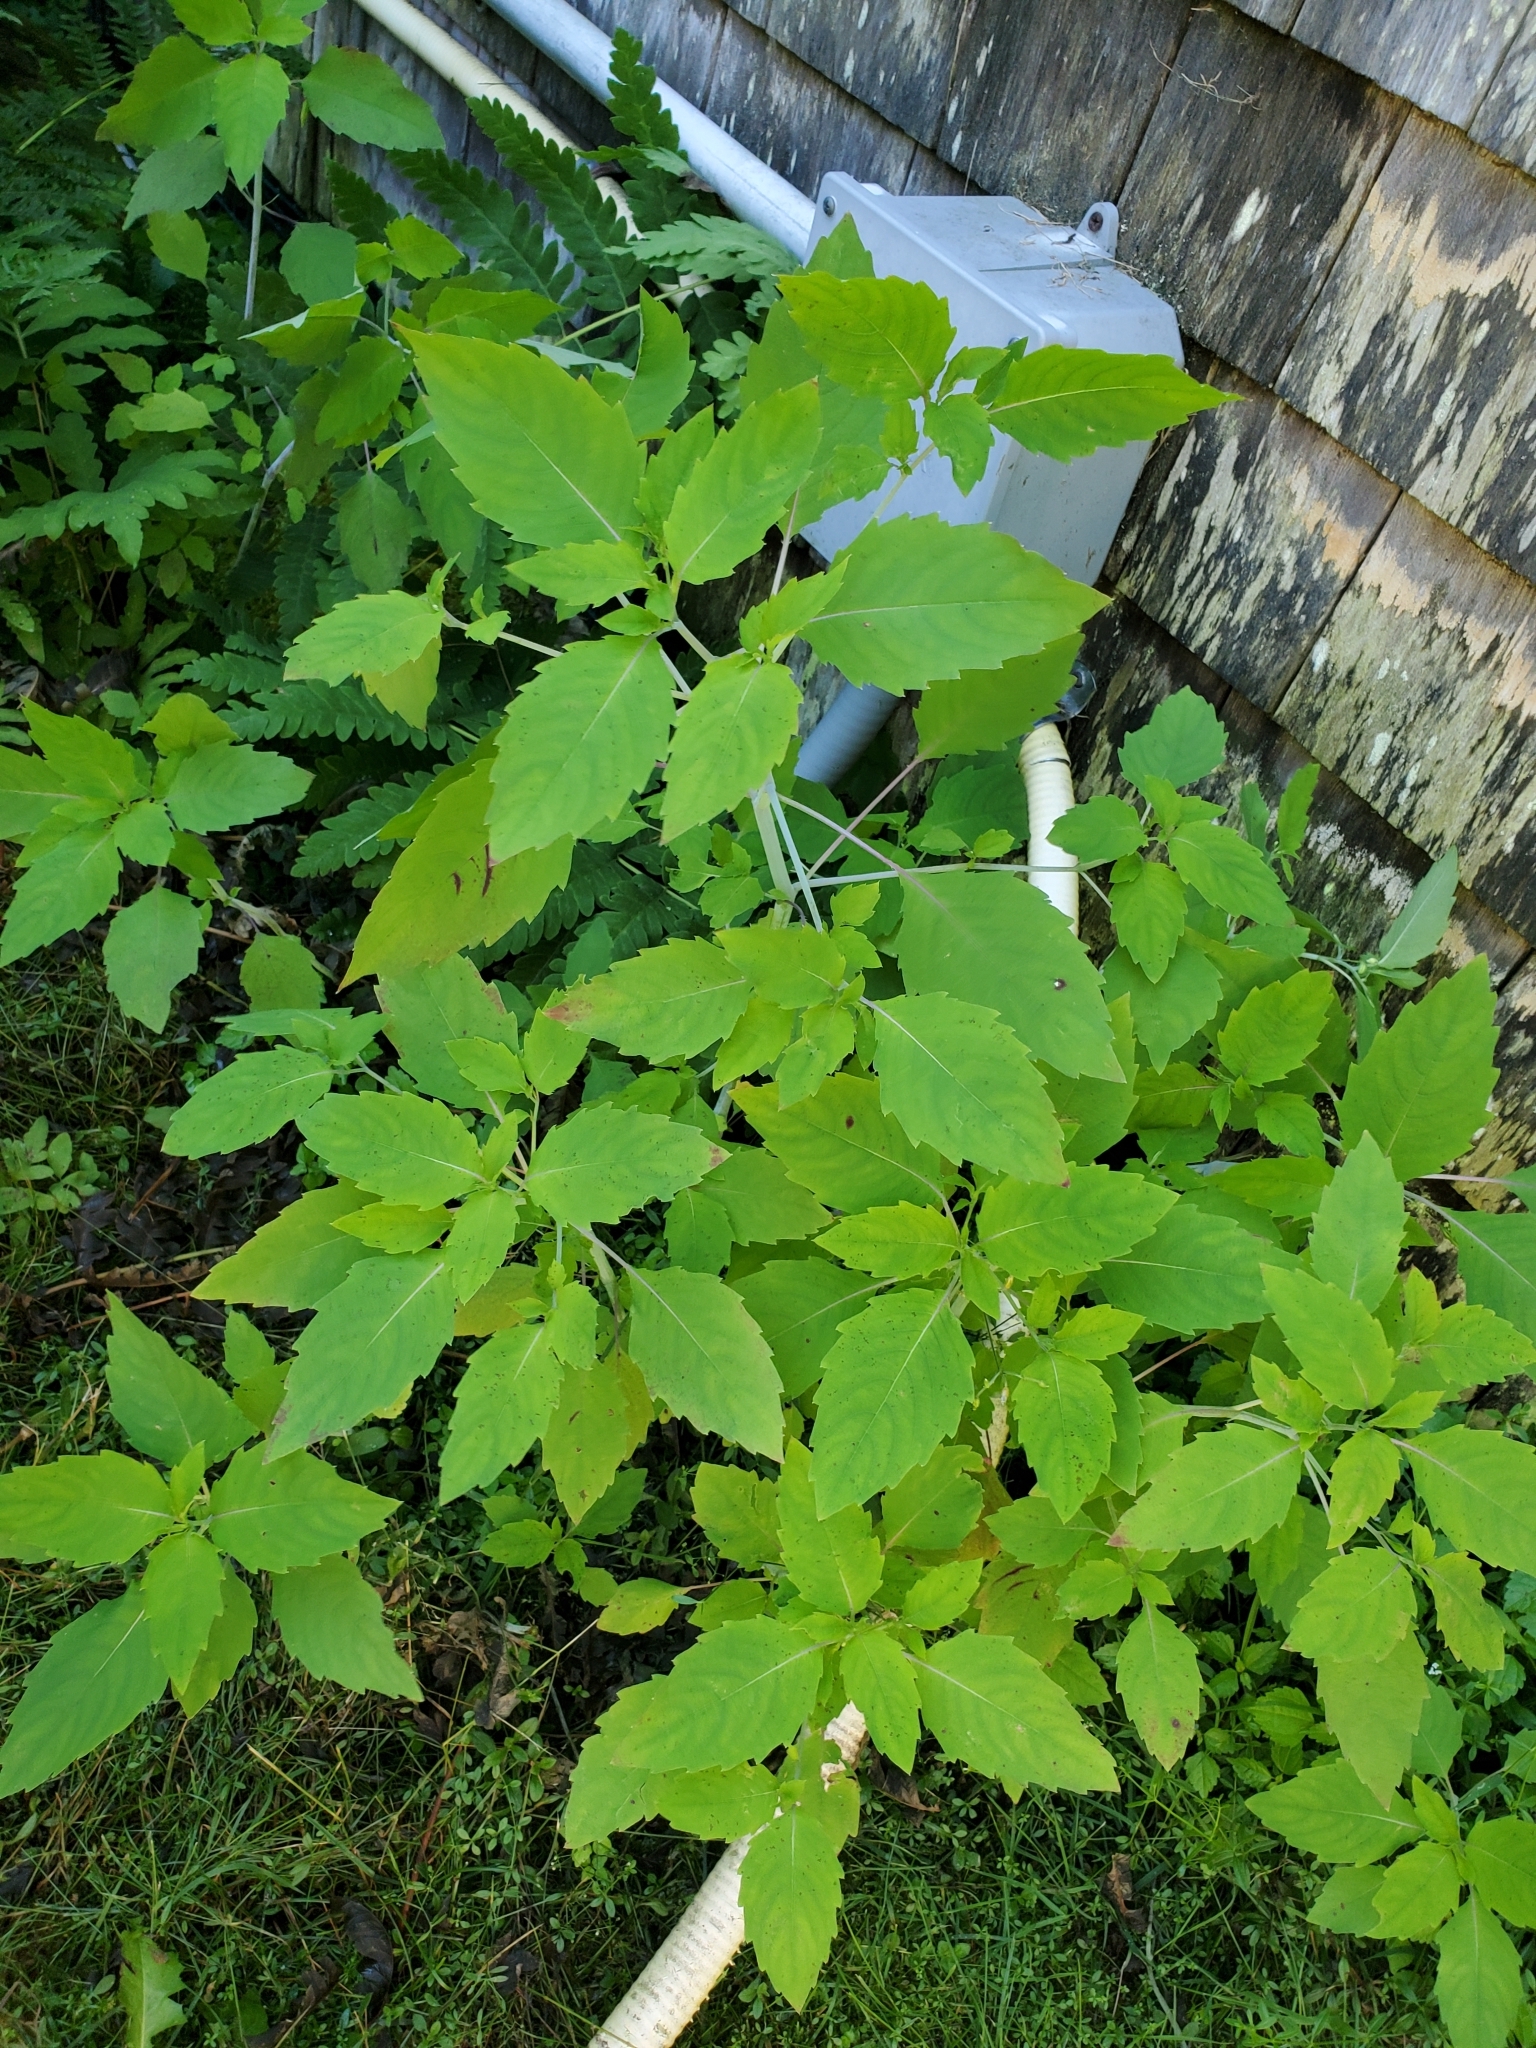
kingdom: Plantae
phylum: Tracheophyta
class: Magnoliopsida
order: Ericales
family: Balsaminaceae
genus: Impatiens
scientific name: Impatiens capensis
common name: Orange balsam
